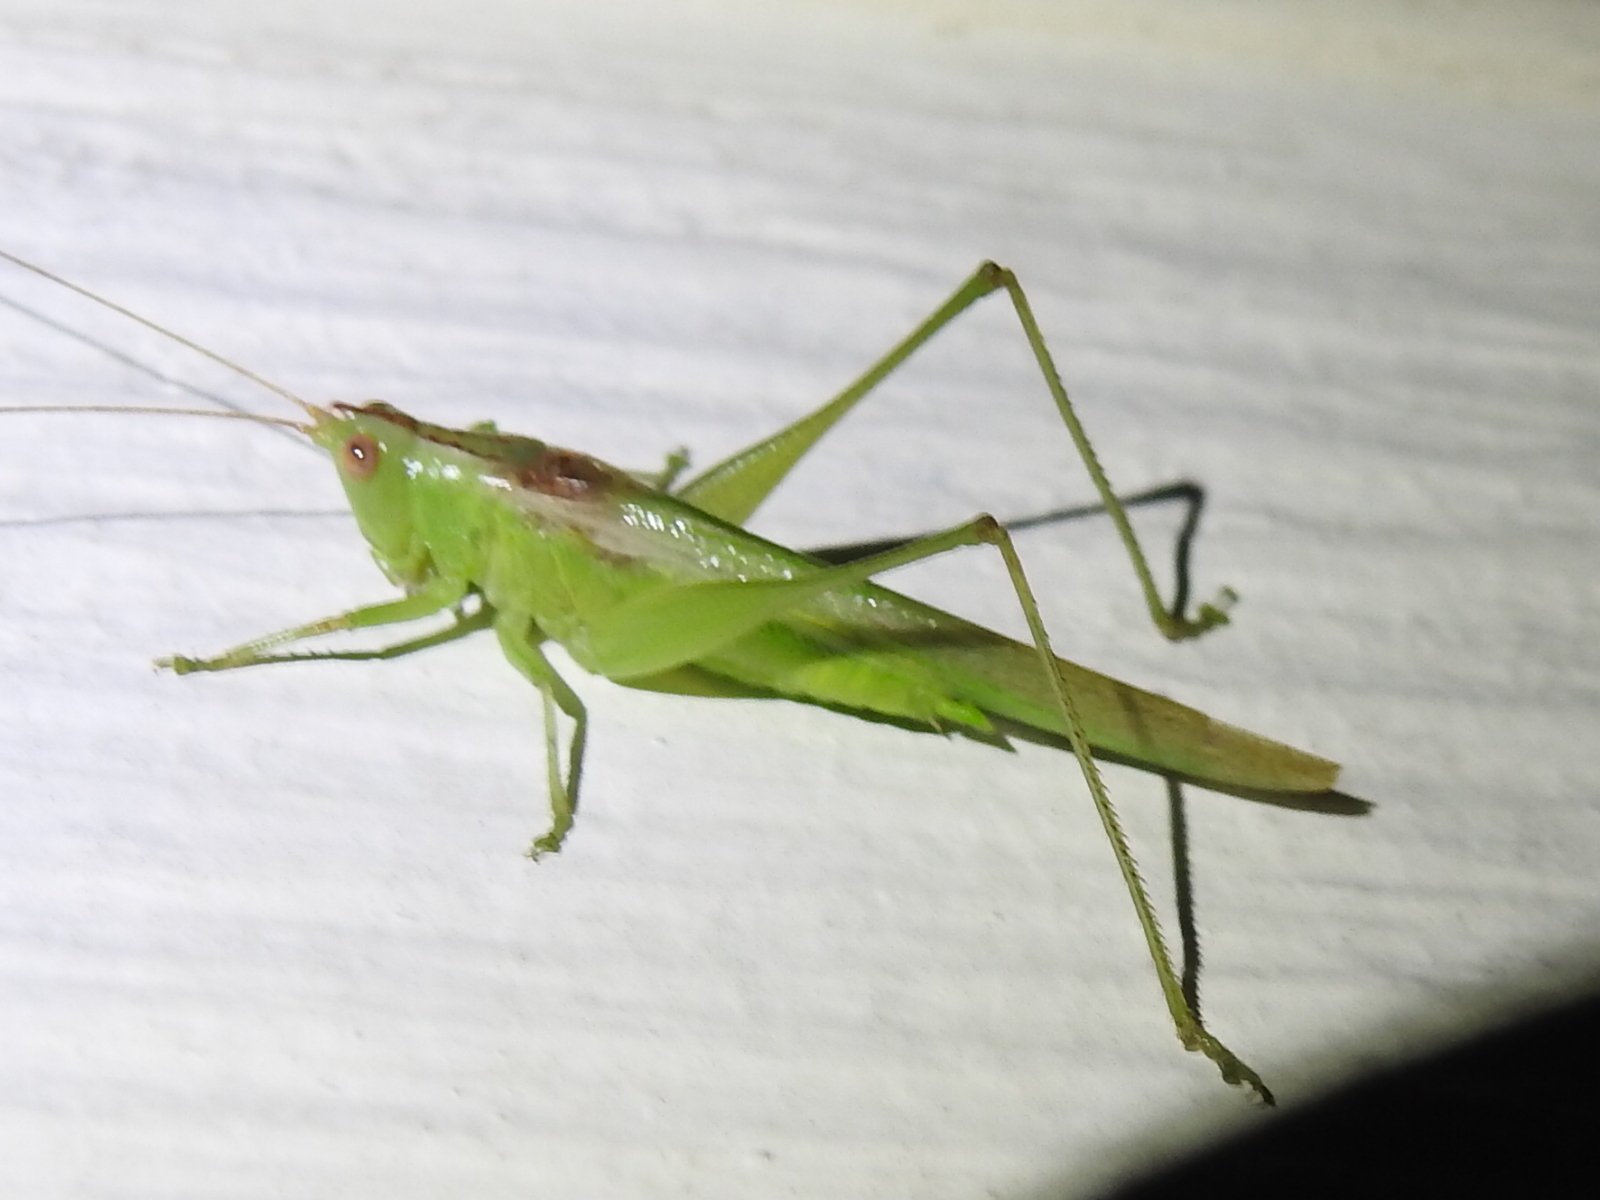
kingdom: Animalia
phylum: Arthropoda
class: Insecta
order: Orthoptera
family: Tettigoniidae
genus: Conocephalus
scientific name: Conocephalus fasciatus
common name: Slender meadow katydid
